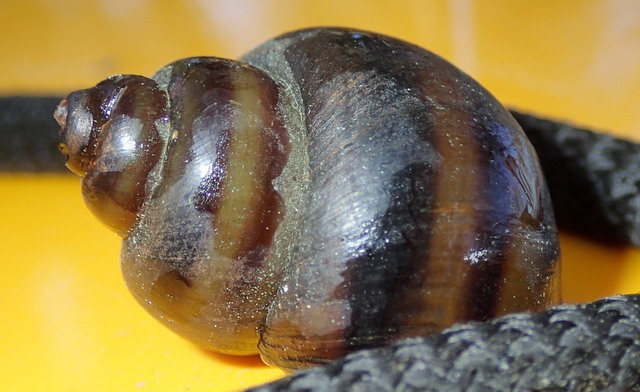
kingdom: Animalia
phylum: Mollusca
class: Gastropoda
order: Architaenioglossa
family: Viviparidae
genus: Callinina
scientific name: Callinina georgiana
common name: Banded mystery snail
